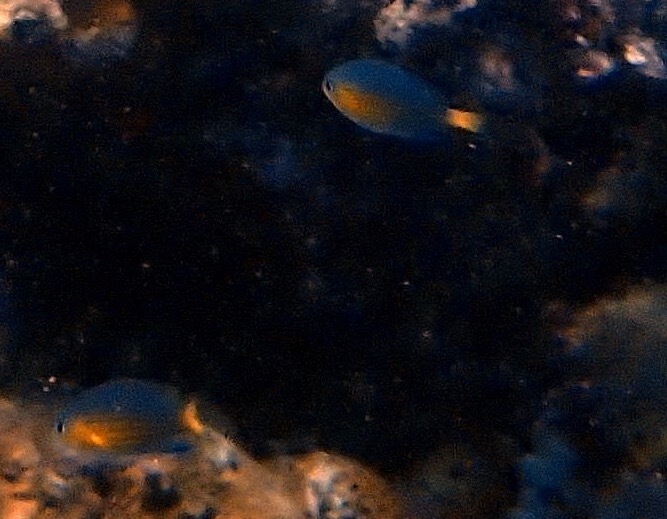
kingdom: Animalia
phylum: Chordata
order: Perciformes
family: Pomacentridae
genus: Chromis
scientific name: Chromis nigrura
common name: Blacktail chromis
